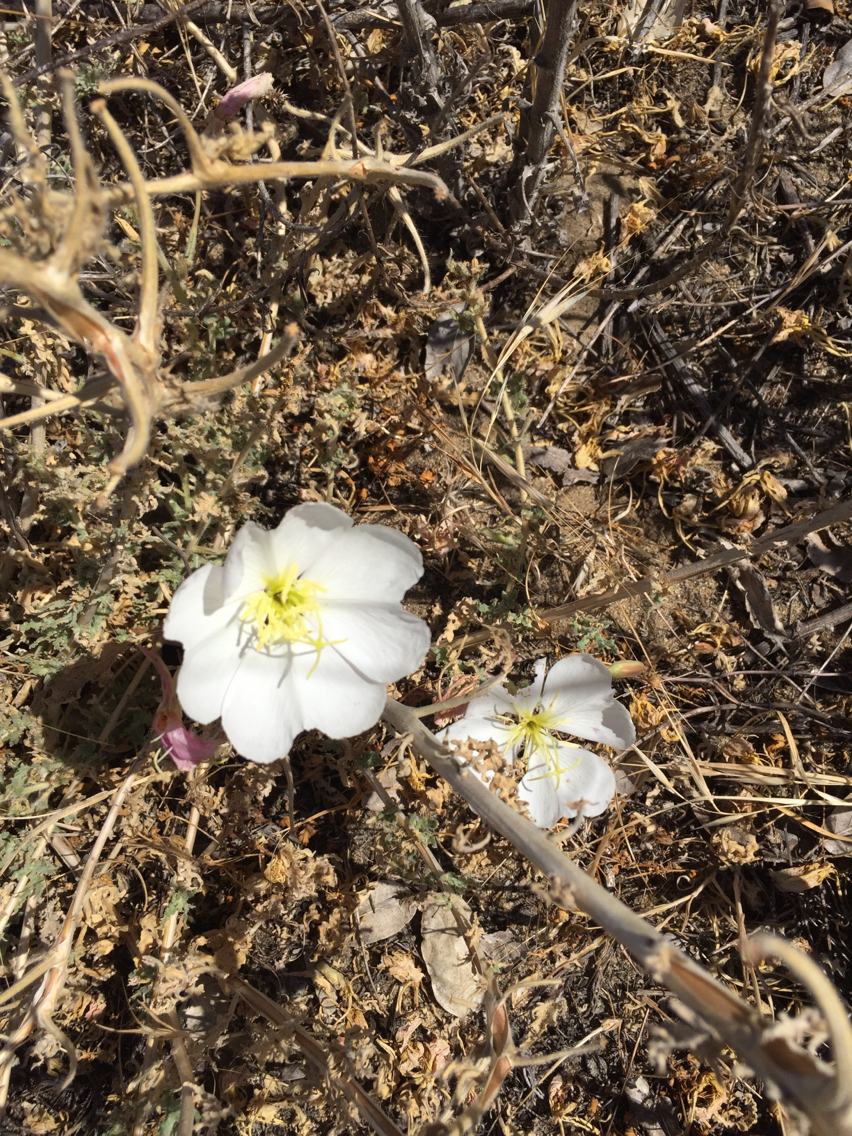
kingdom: Plantae
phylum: Tracheophyta
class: Magnoliopsida
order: Myrtales
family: Onagraceae
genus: Oenothera
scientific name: Oenothera deltoides
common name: Basket evening-primrose
